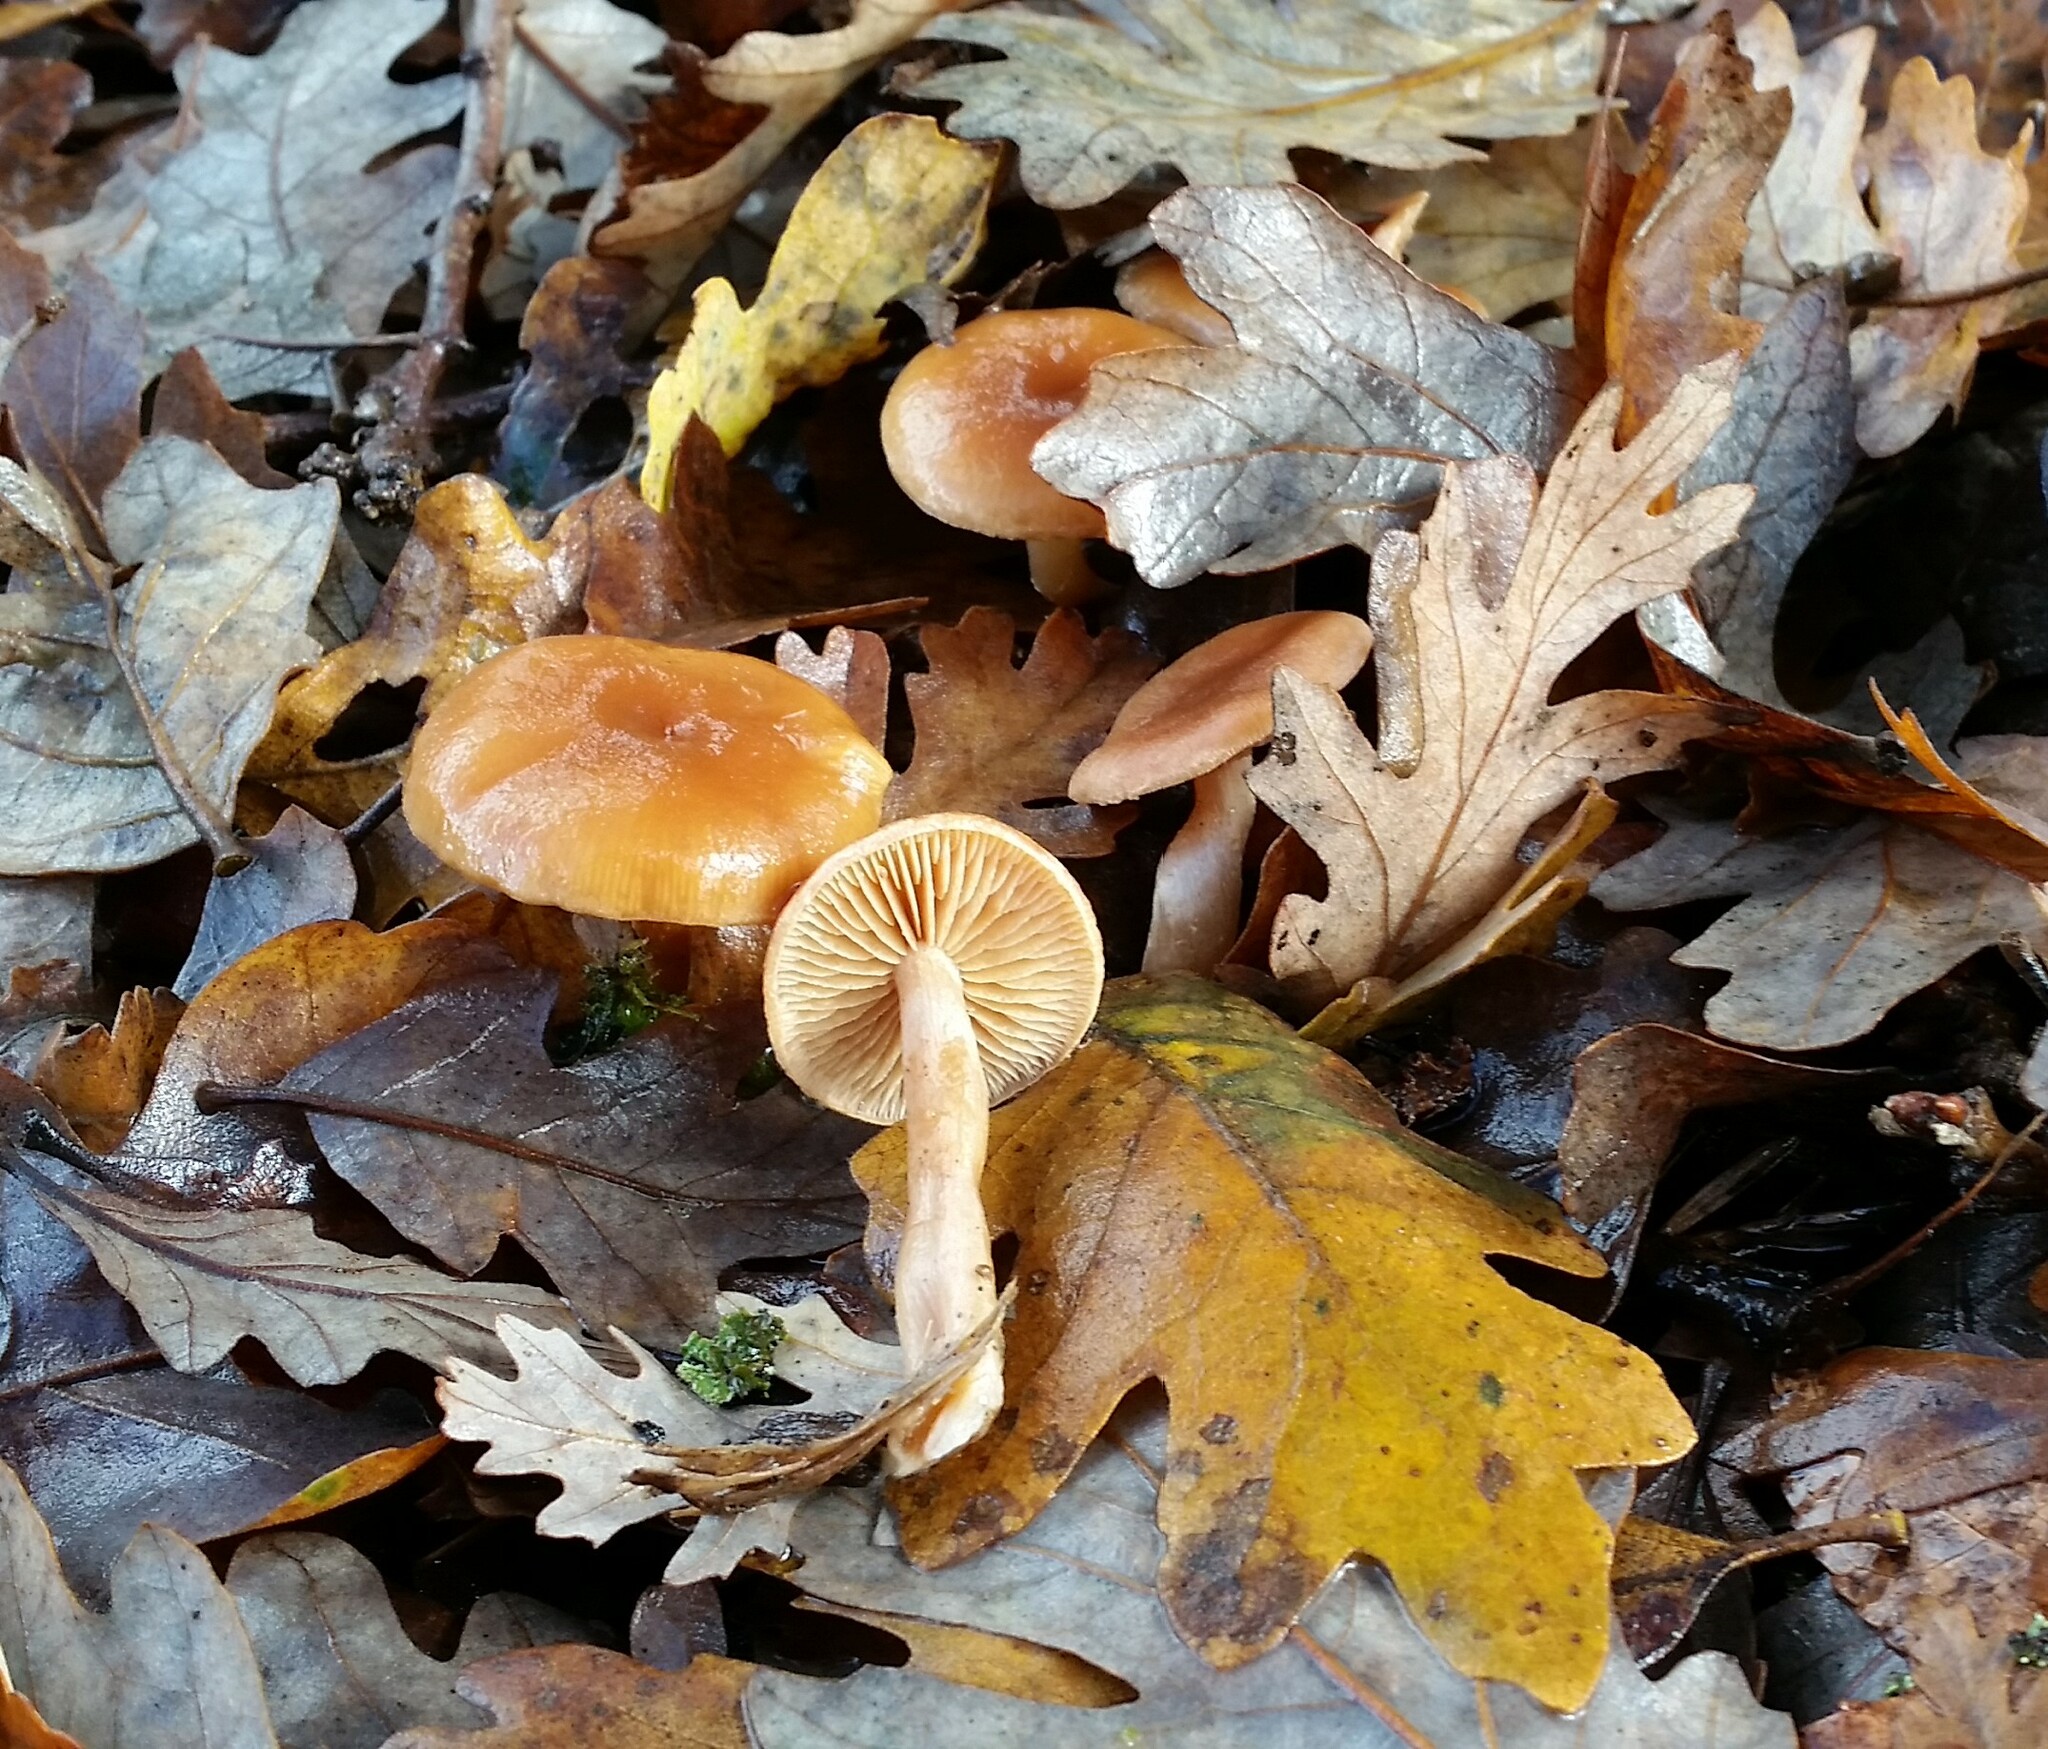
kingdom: Fungi
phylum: Basidiomycota
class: Agaricomycetes
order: Agaricales
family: Omphalotaceae
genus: Gymnopus
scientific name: Gymnopus dryophilus
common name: Penny top
